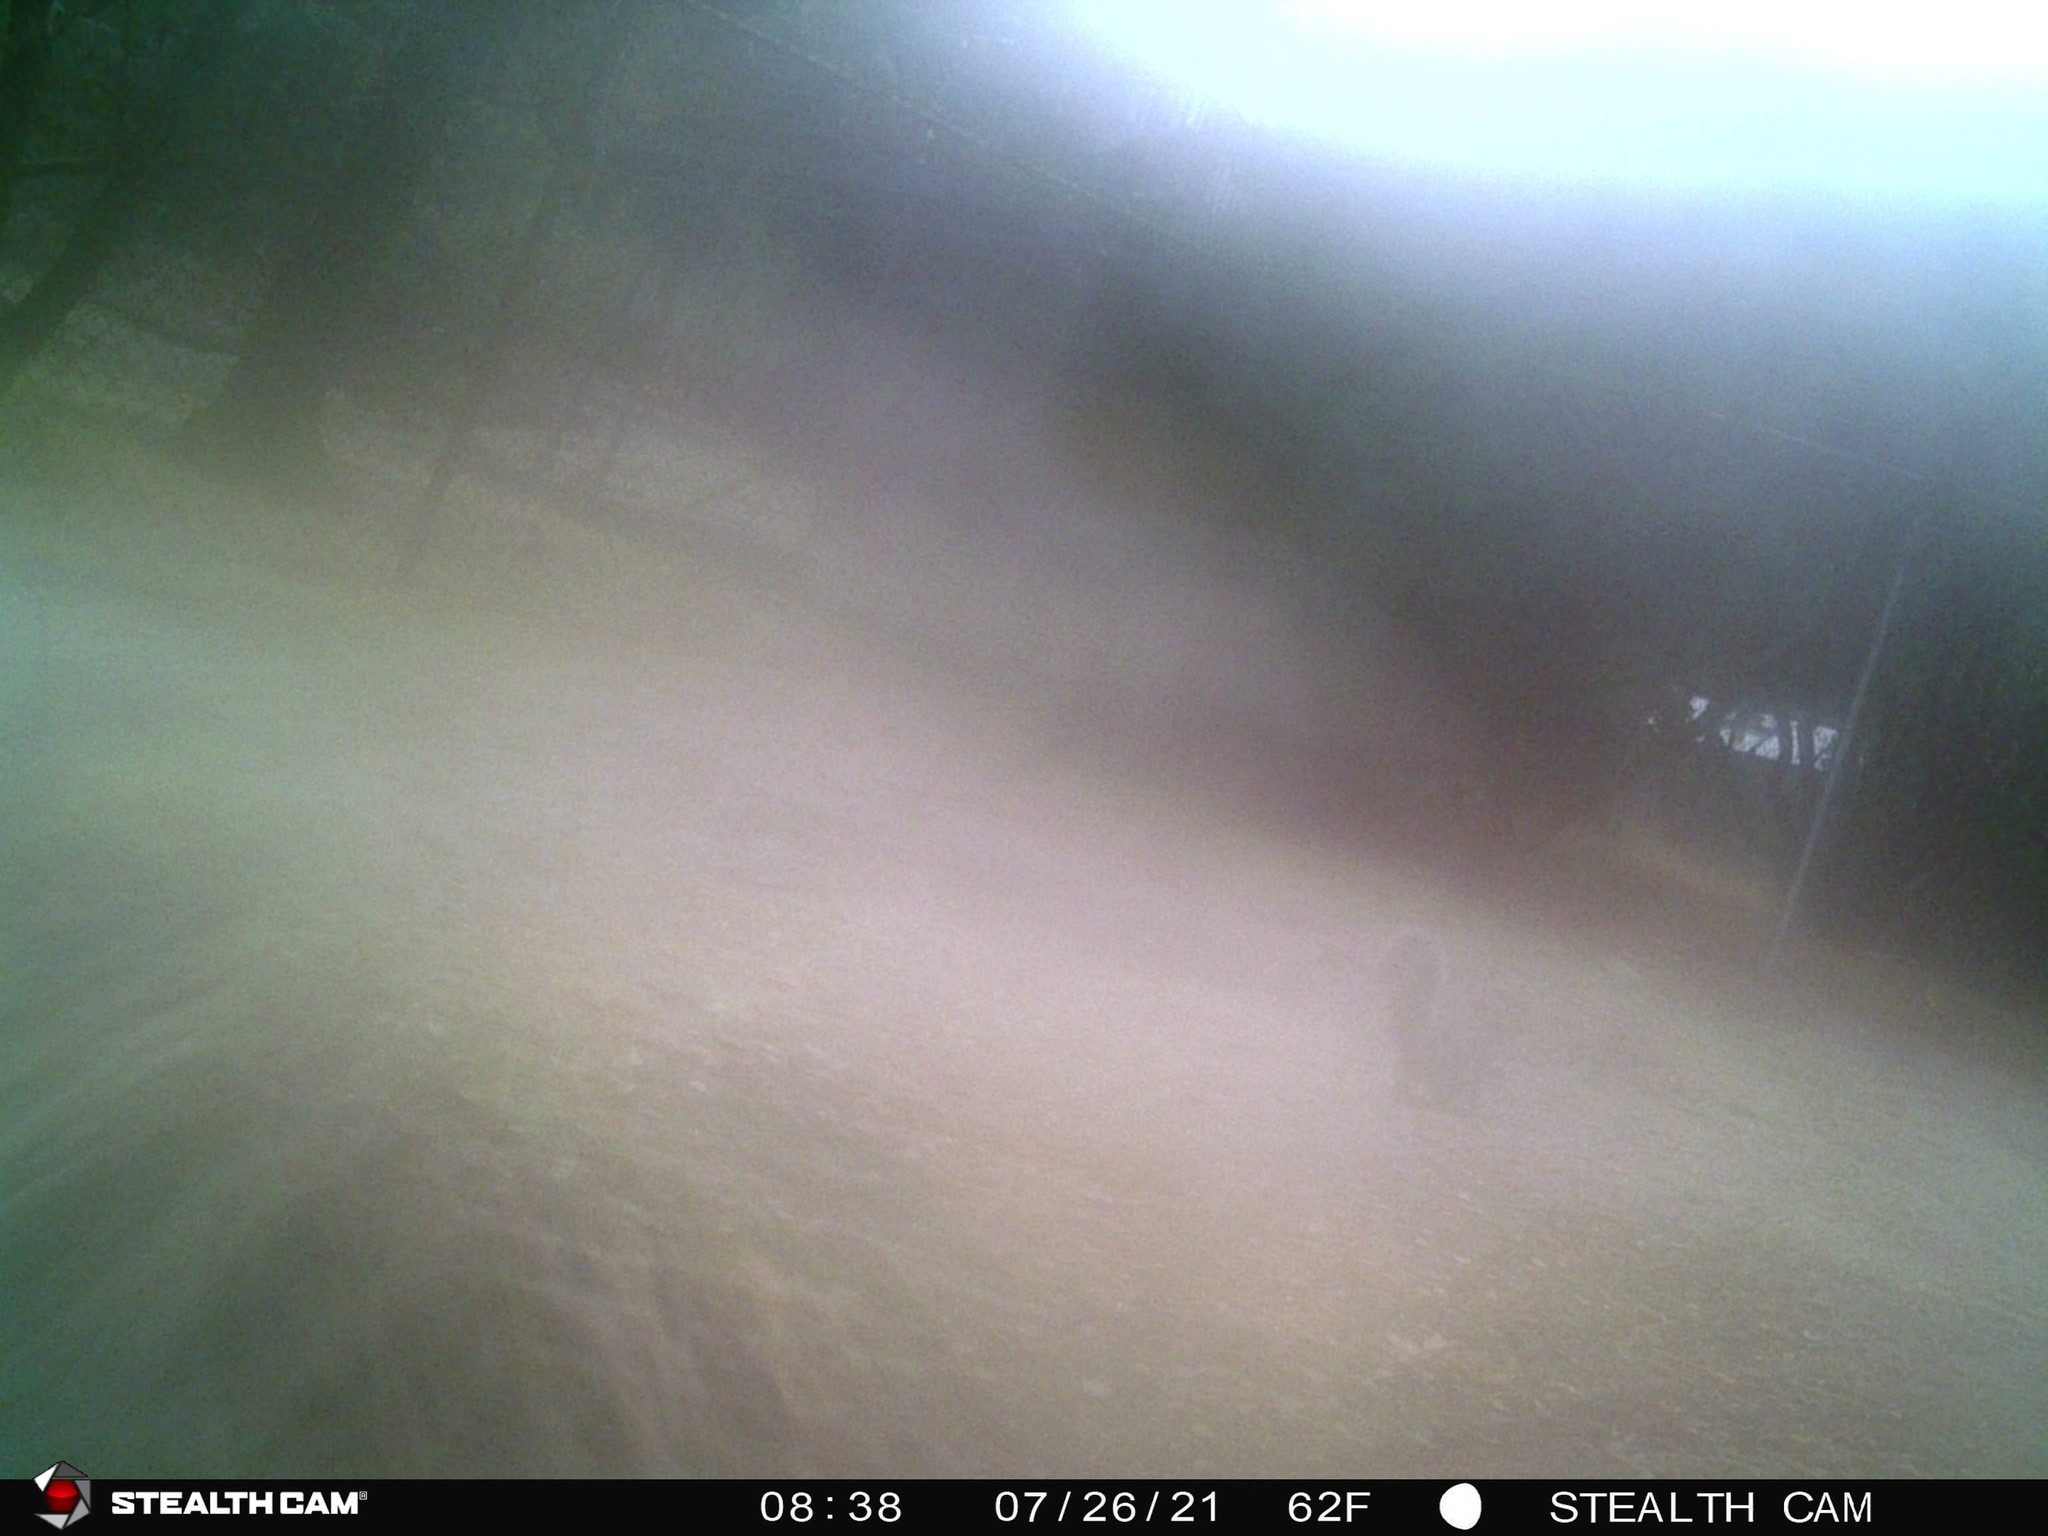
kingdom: Animalia
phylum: Chordata
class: Mammalia
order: Rodentia
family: Sciuridae
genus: Sciurus
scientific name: Sciurus griseus
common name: Western gray squirrel
